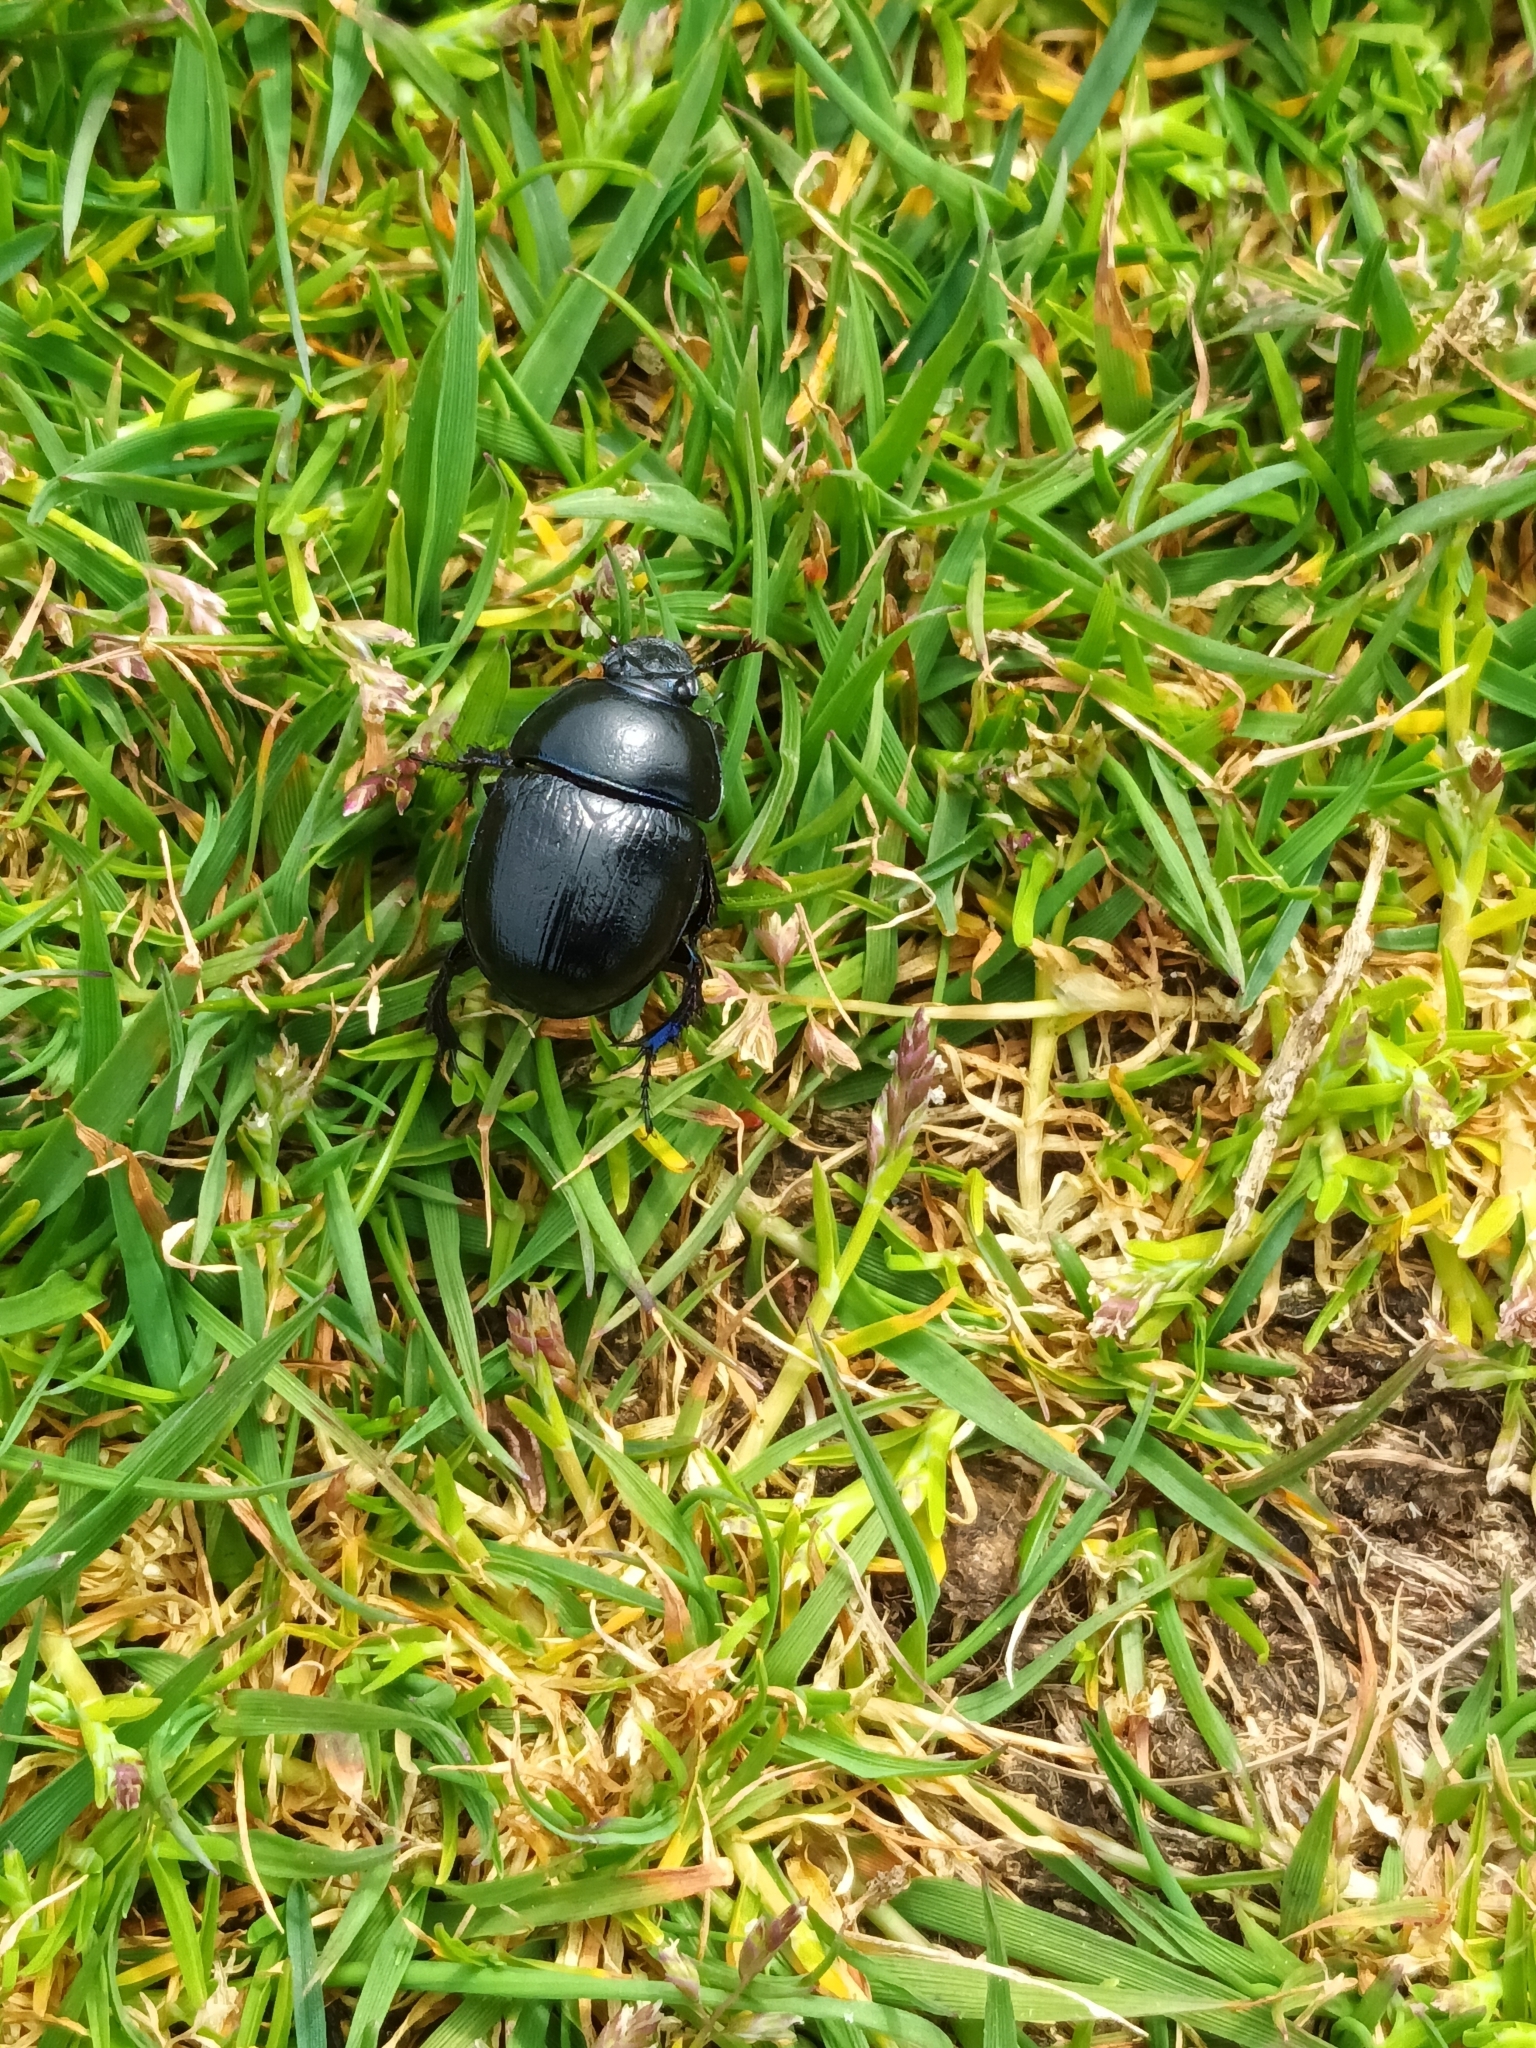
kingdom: Animalia
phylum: Arthropoda
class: Insecta
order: Coleoptera
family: Geotrupidae
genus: Typhaeus
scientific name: Typhaeus typhoeus
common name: Minotaur beetle
